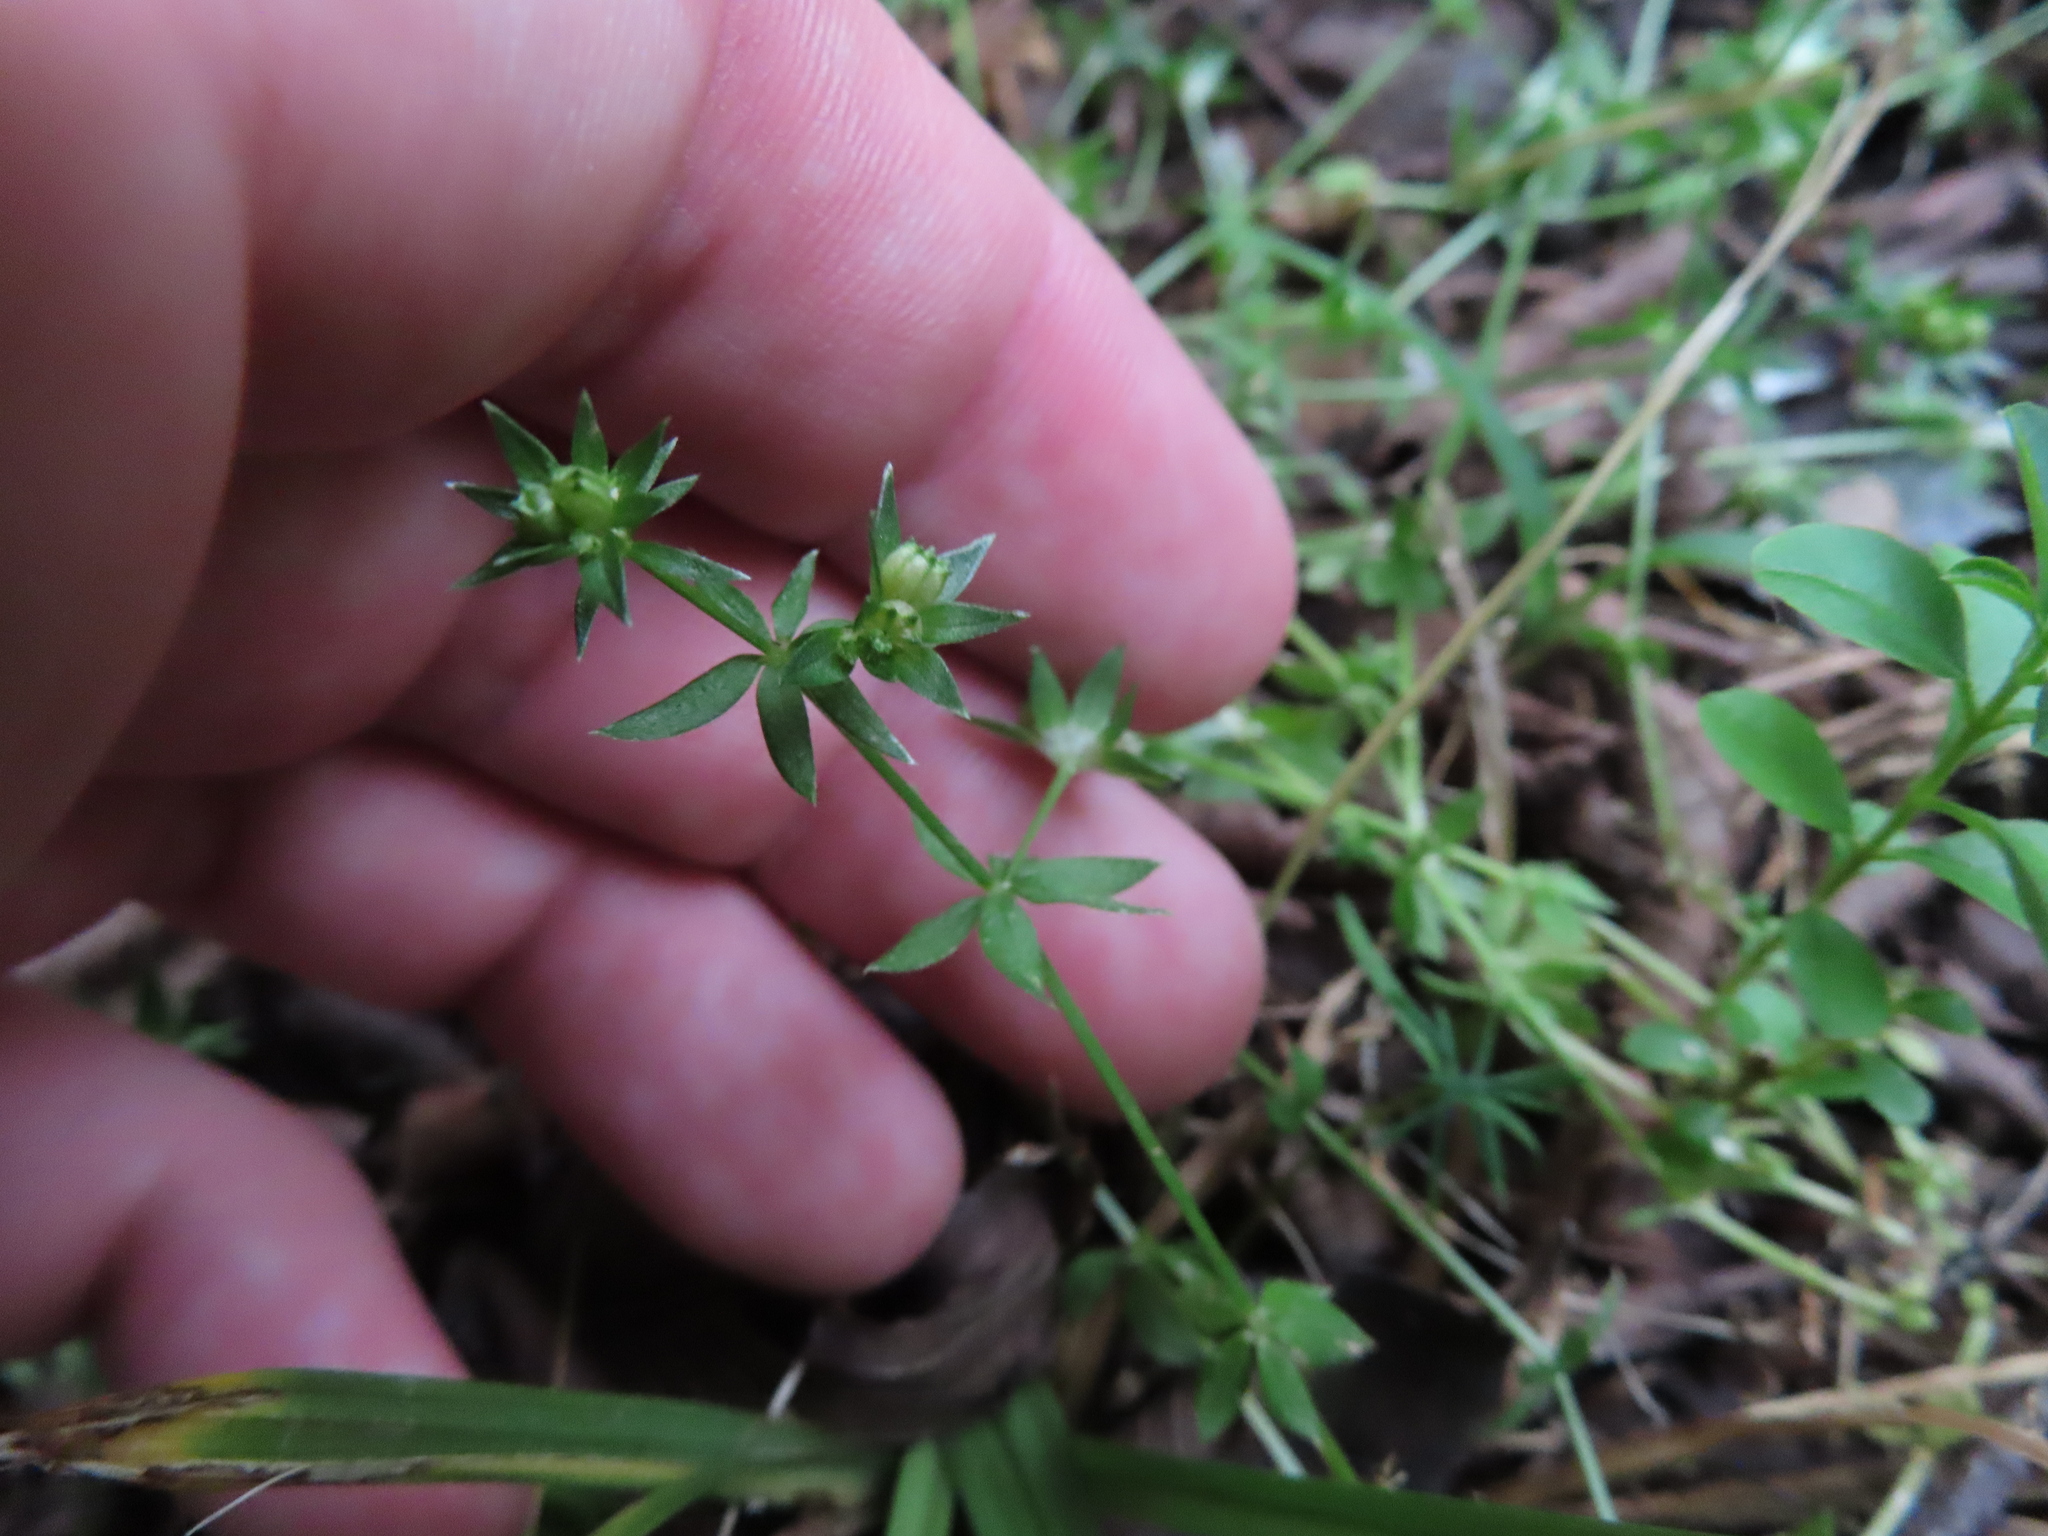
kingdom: Plantae
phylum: Tracheophyta
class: Magnoliopsida
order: Gentianales
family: Rubiaceae
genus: Sherardia
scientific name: Sherardia arvensis
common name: Field madder
